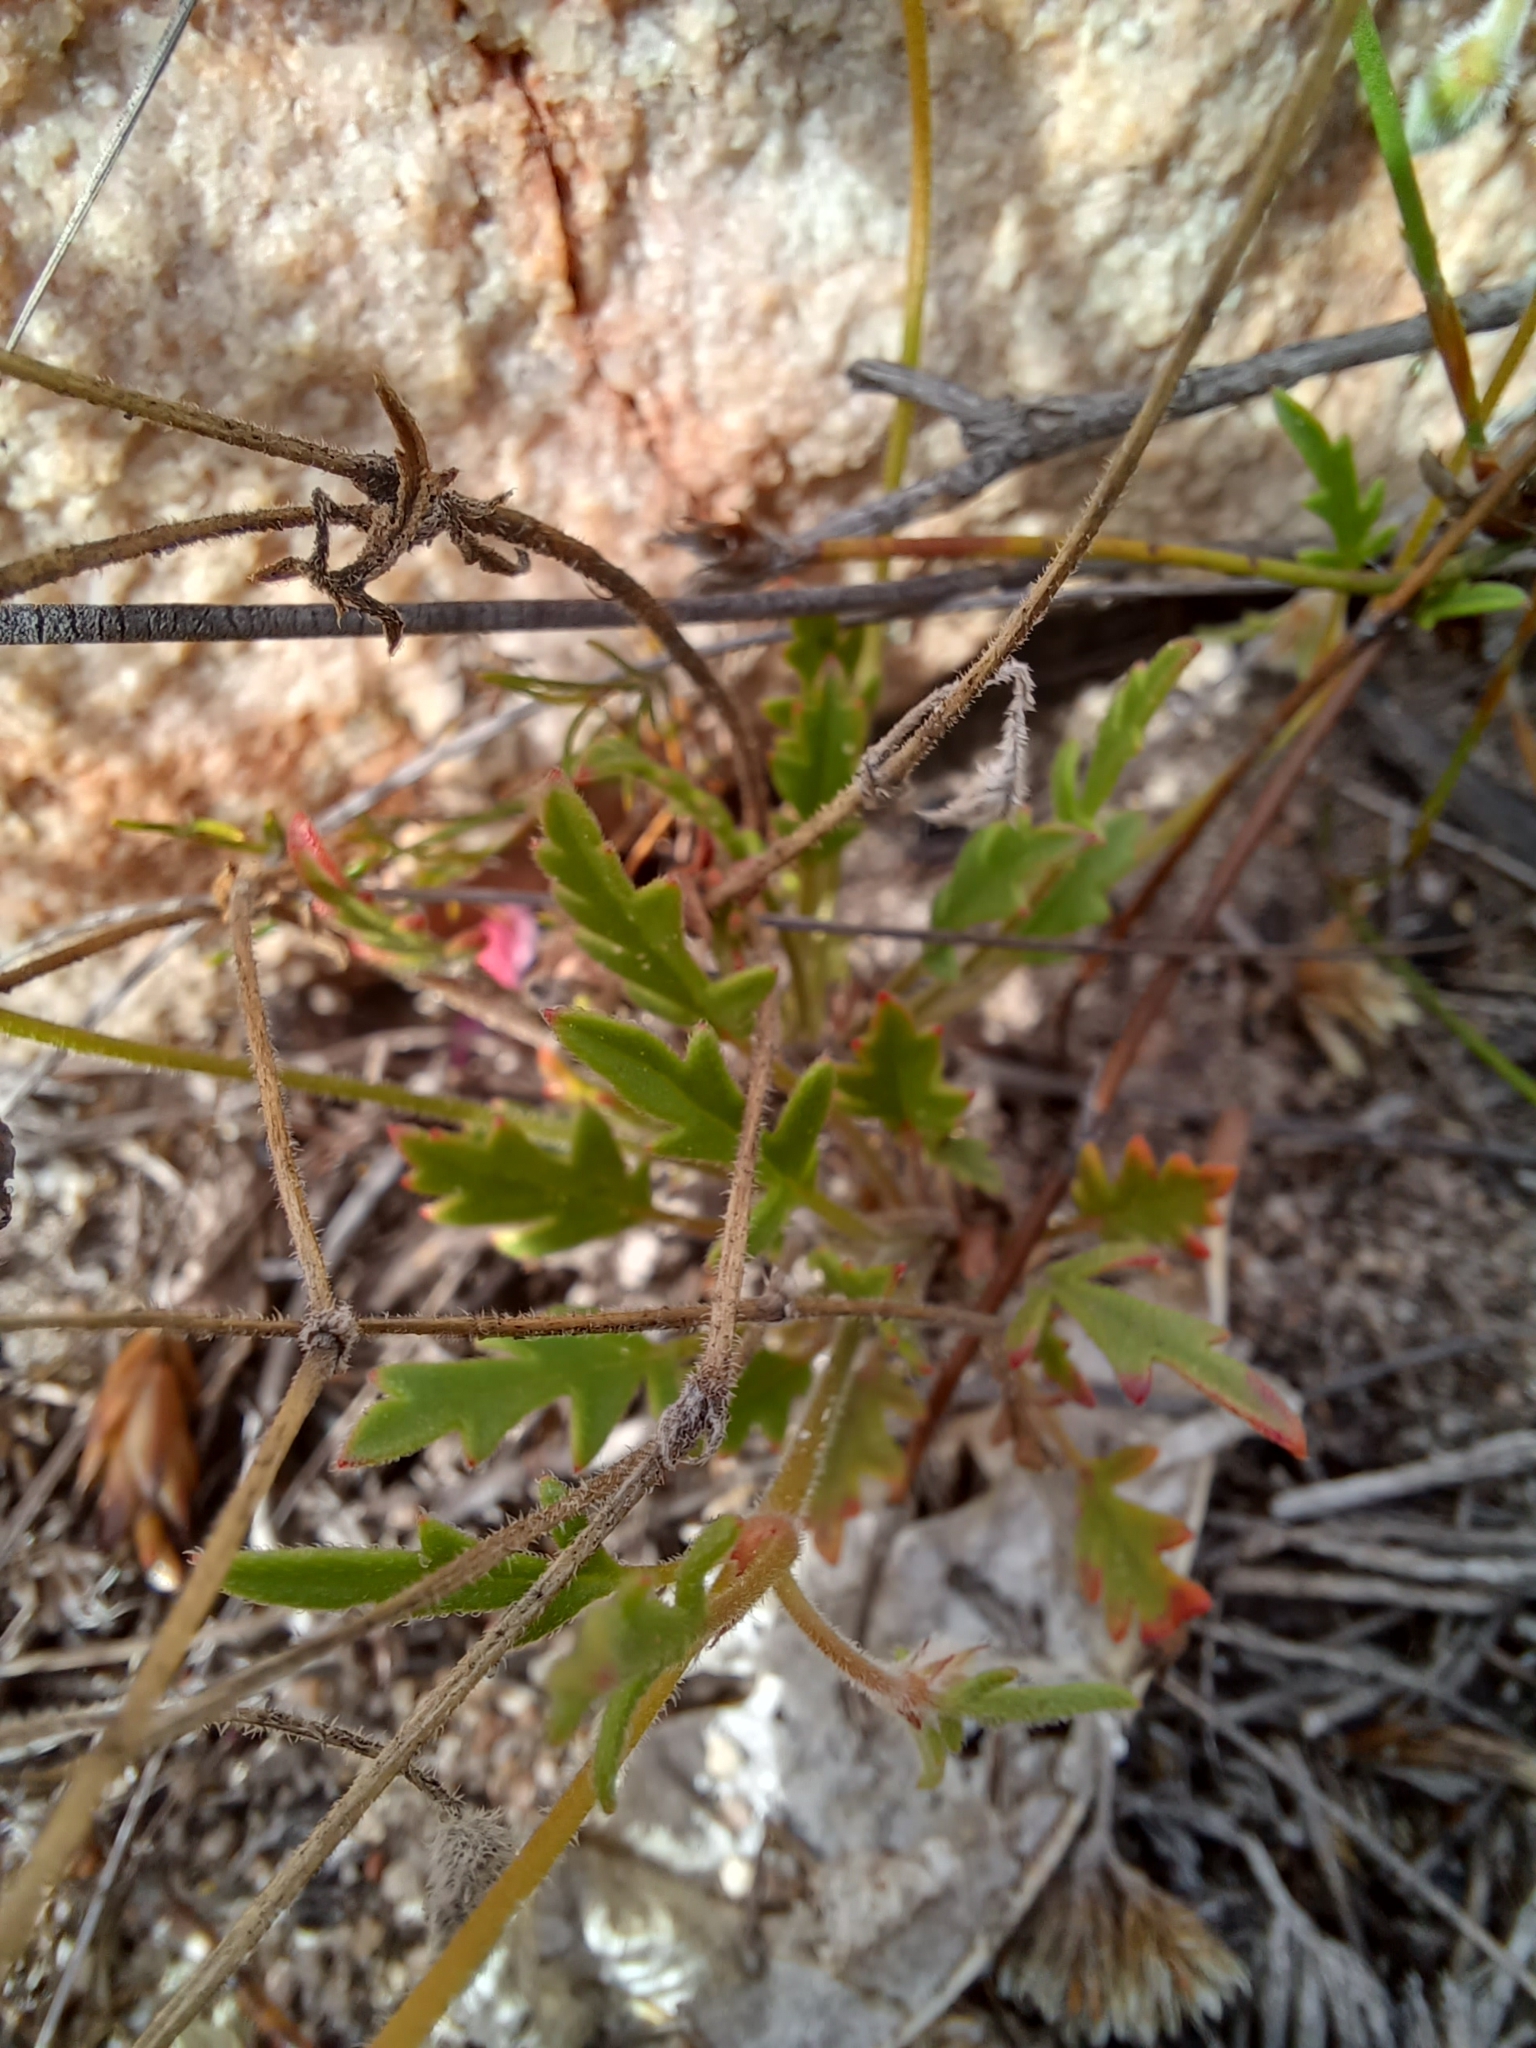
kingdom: Plantae
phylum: Tracheophyta
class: Magnoliopsida
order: Geraniales
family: Geraniaceae
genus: Pelargonium
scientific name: Pelargonium capillare
